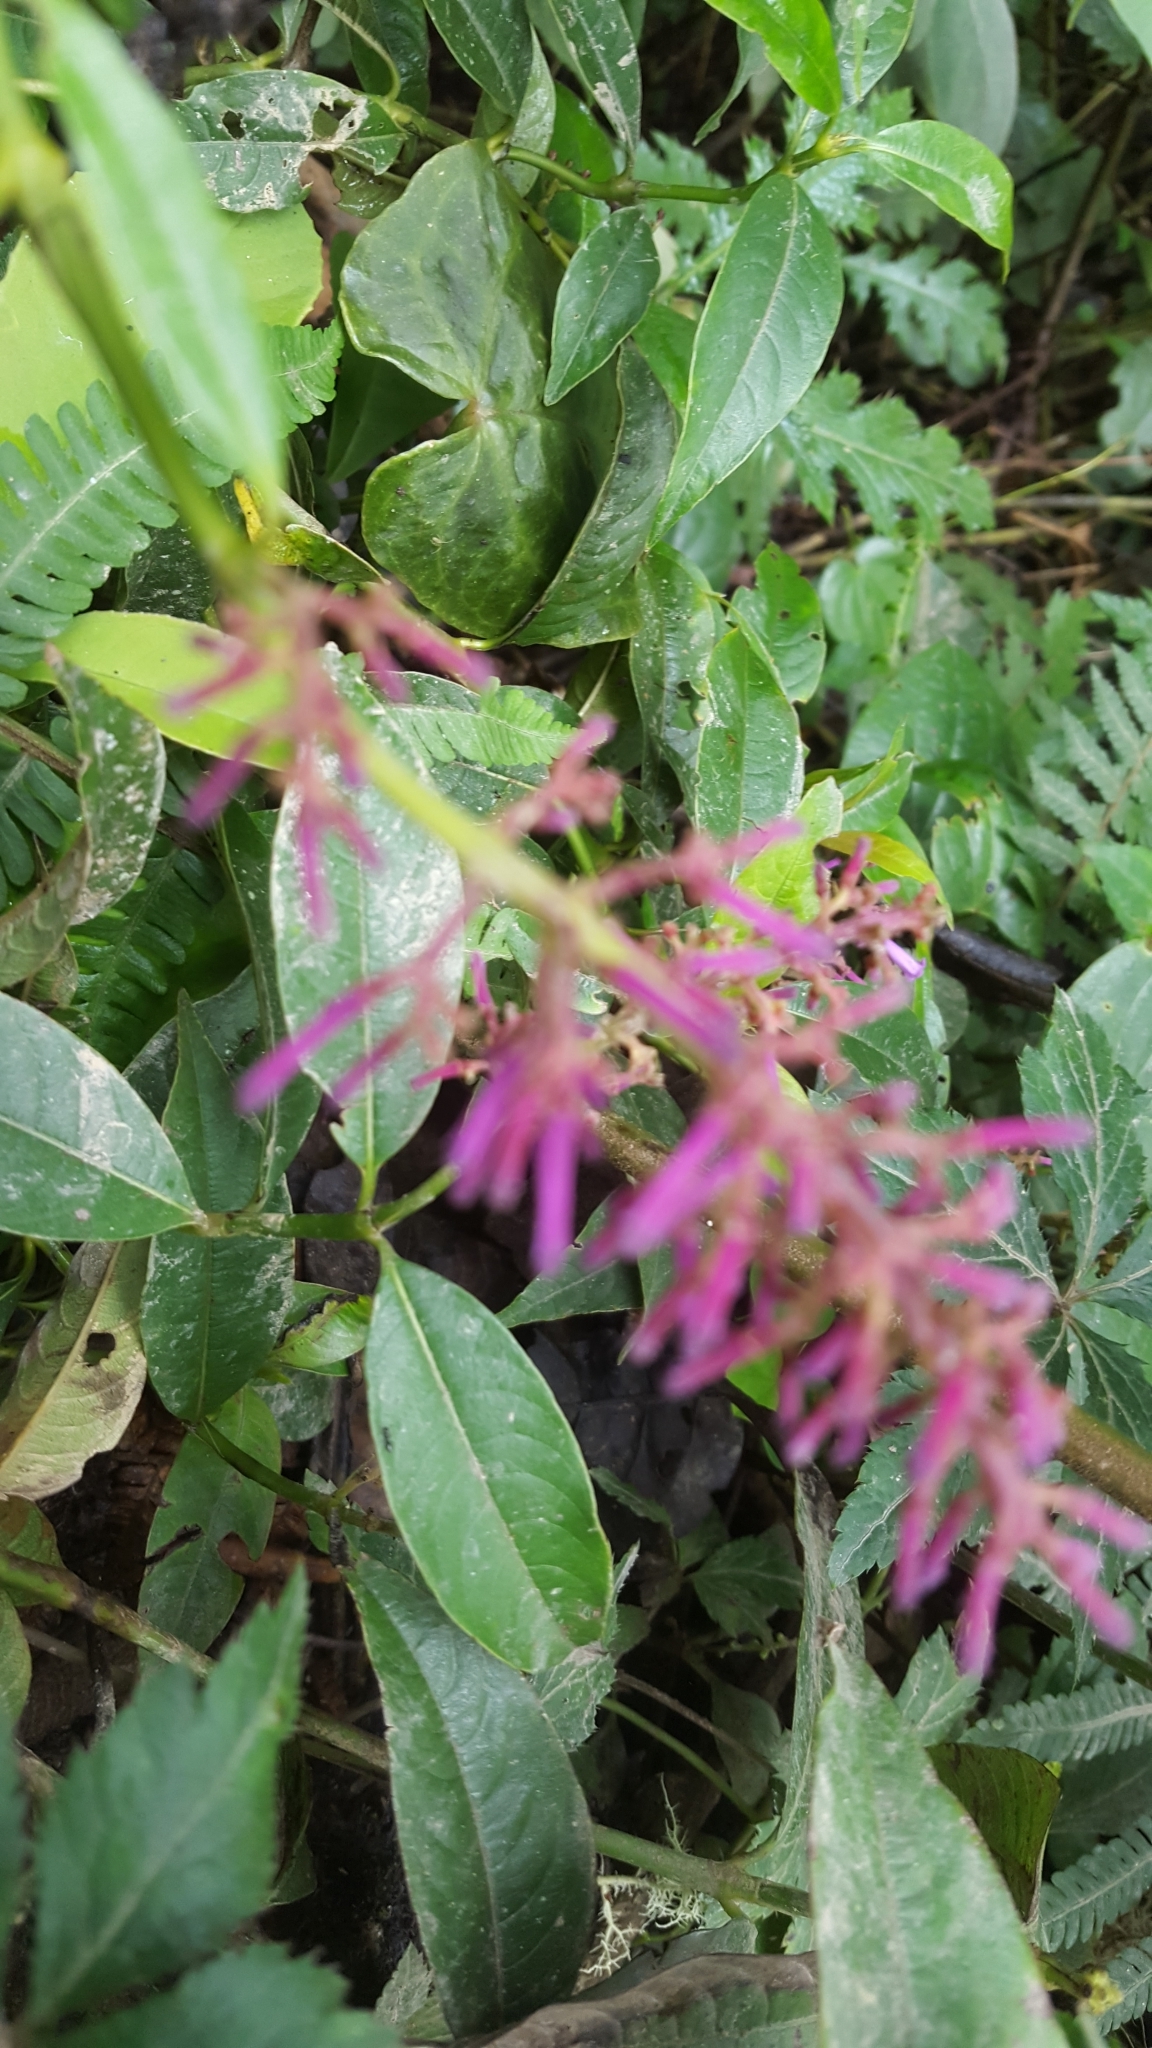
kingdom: Plantae
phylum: Tracheophyta
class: Magnoliopsida
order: Gentianales
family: Rubiaceae
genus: Palicourea
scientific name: Palicourea angustifolia
